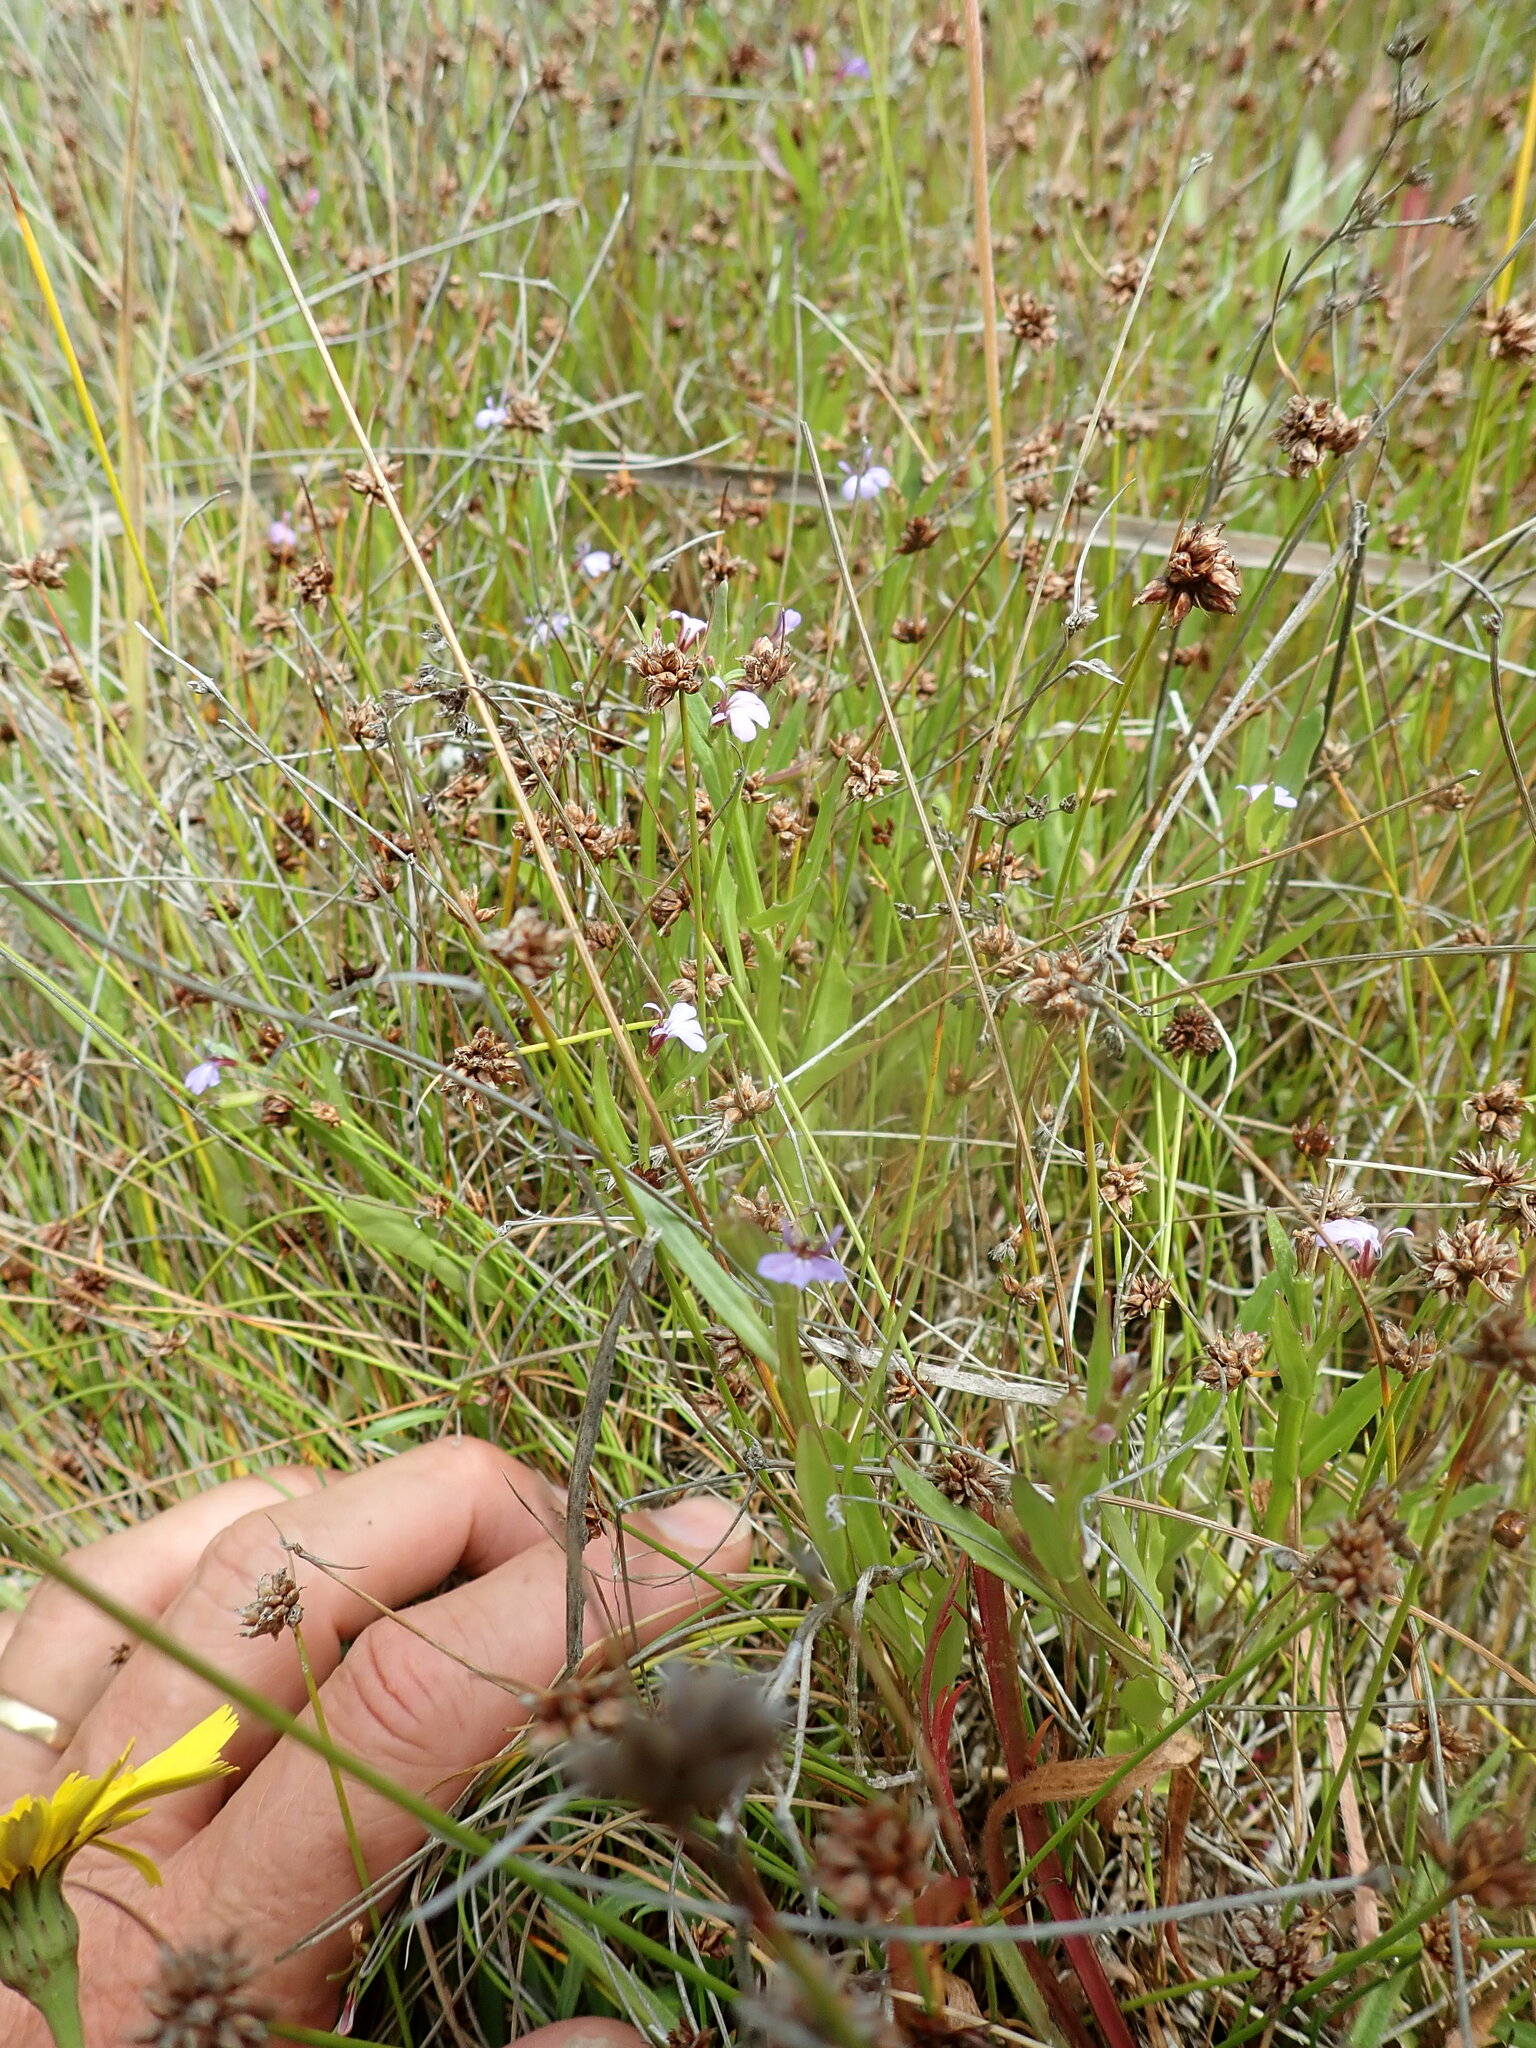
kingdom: Plantae
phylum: Tracheophyta
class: Magnoliopsida
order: Asterales
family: Campanulaceae
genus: Lobelia
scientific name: Lobelia anceps
